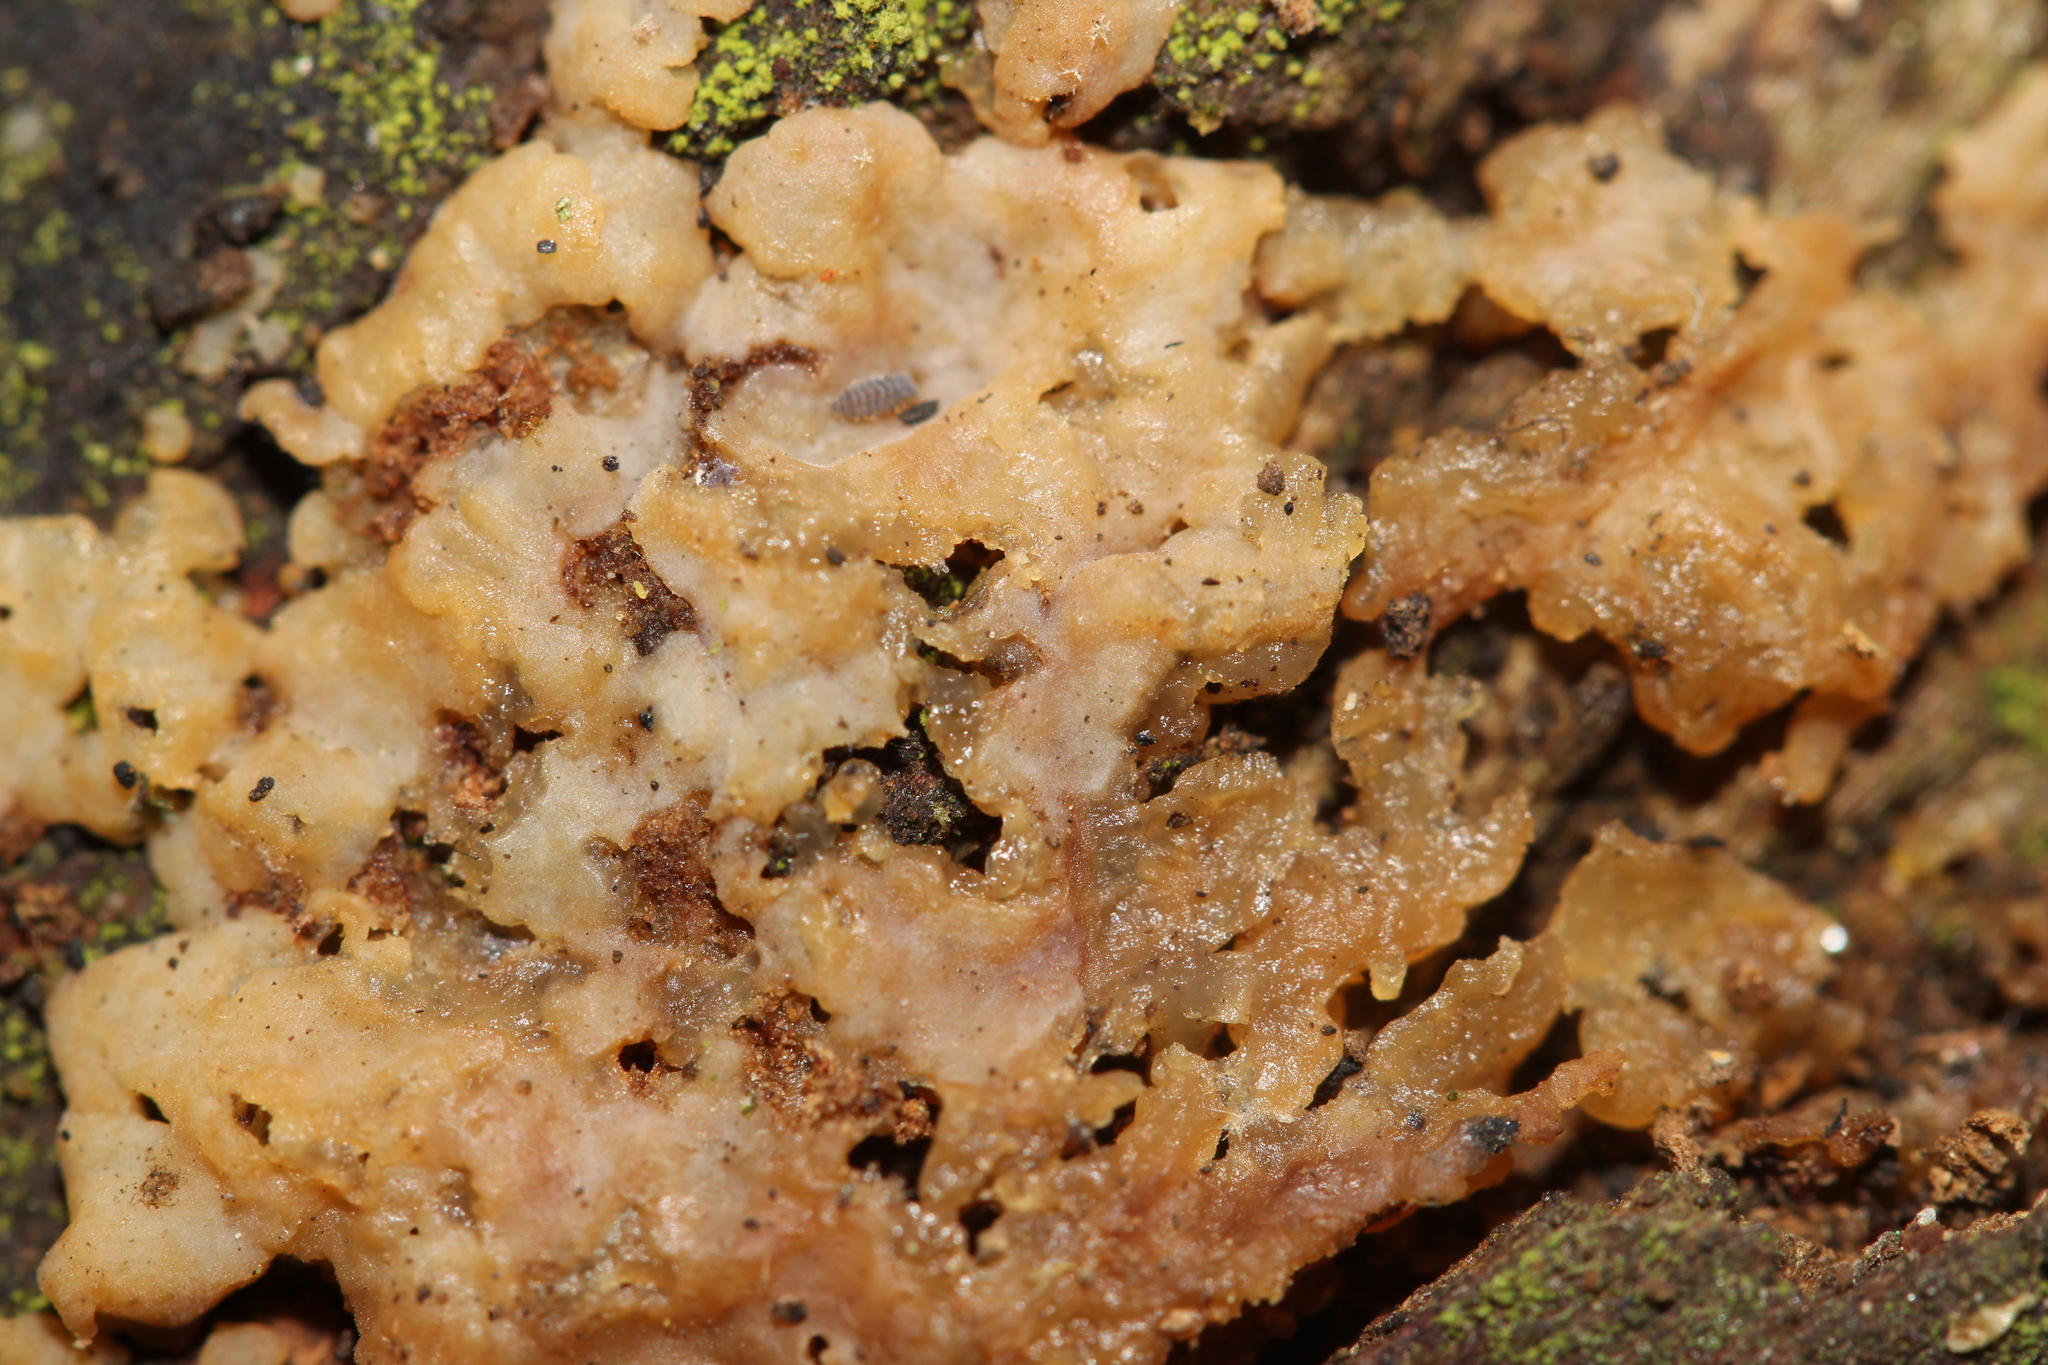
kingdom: Fungi
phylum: Basidiomycota
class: Agaricomycetes
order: Auriculariales
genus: Ductifera
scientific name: Ductifera pululahuana
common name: White jelly fungus
